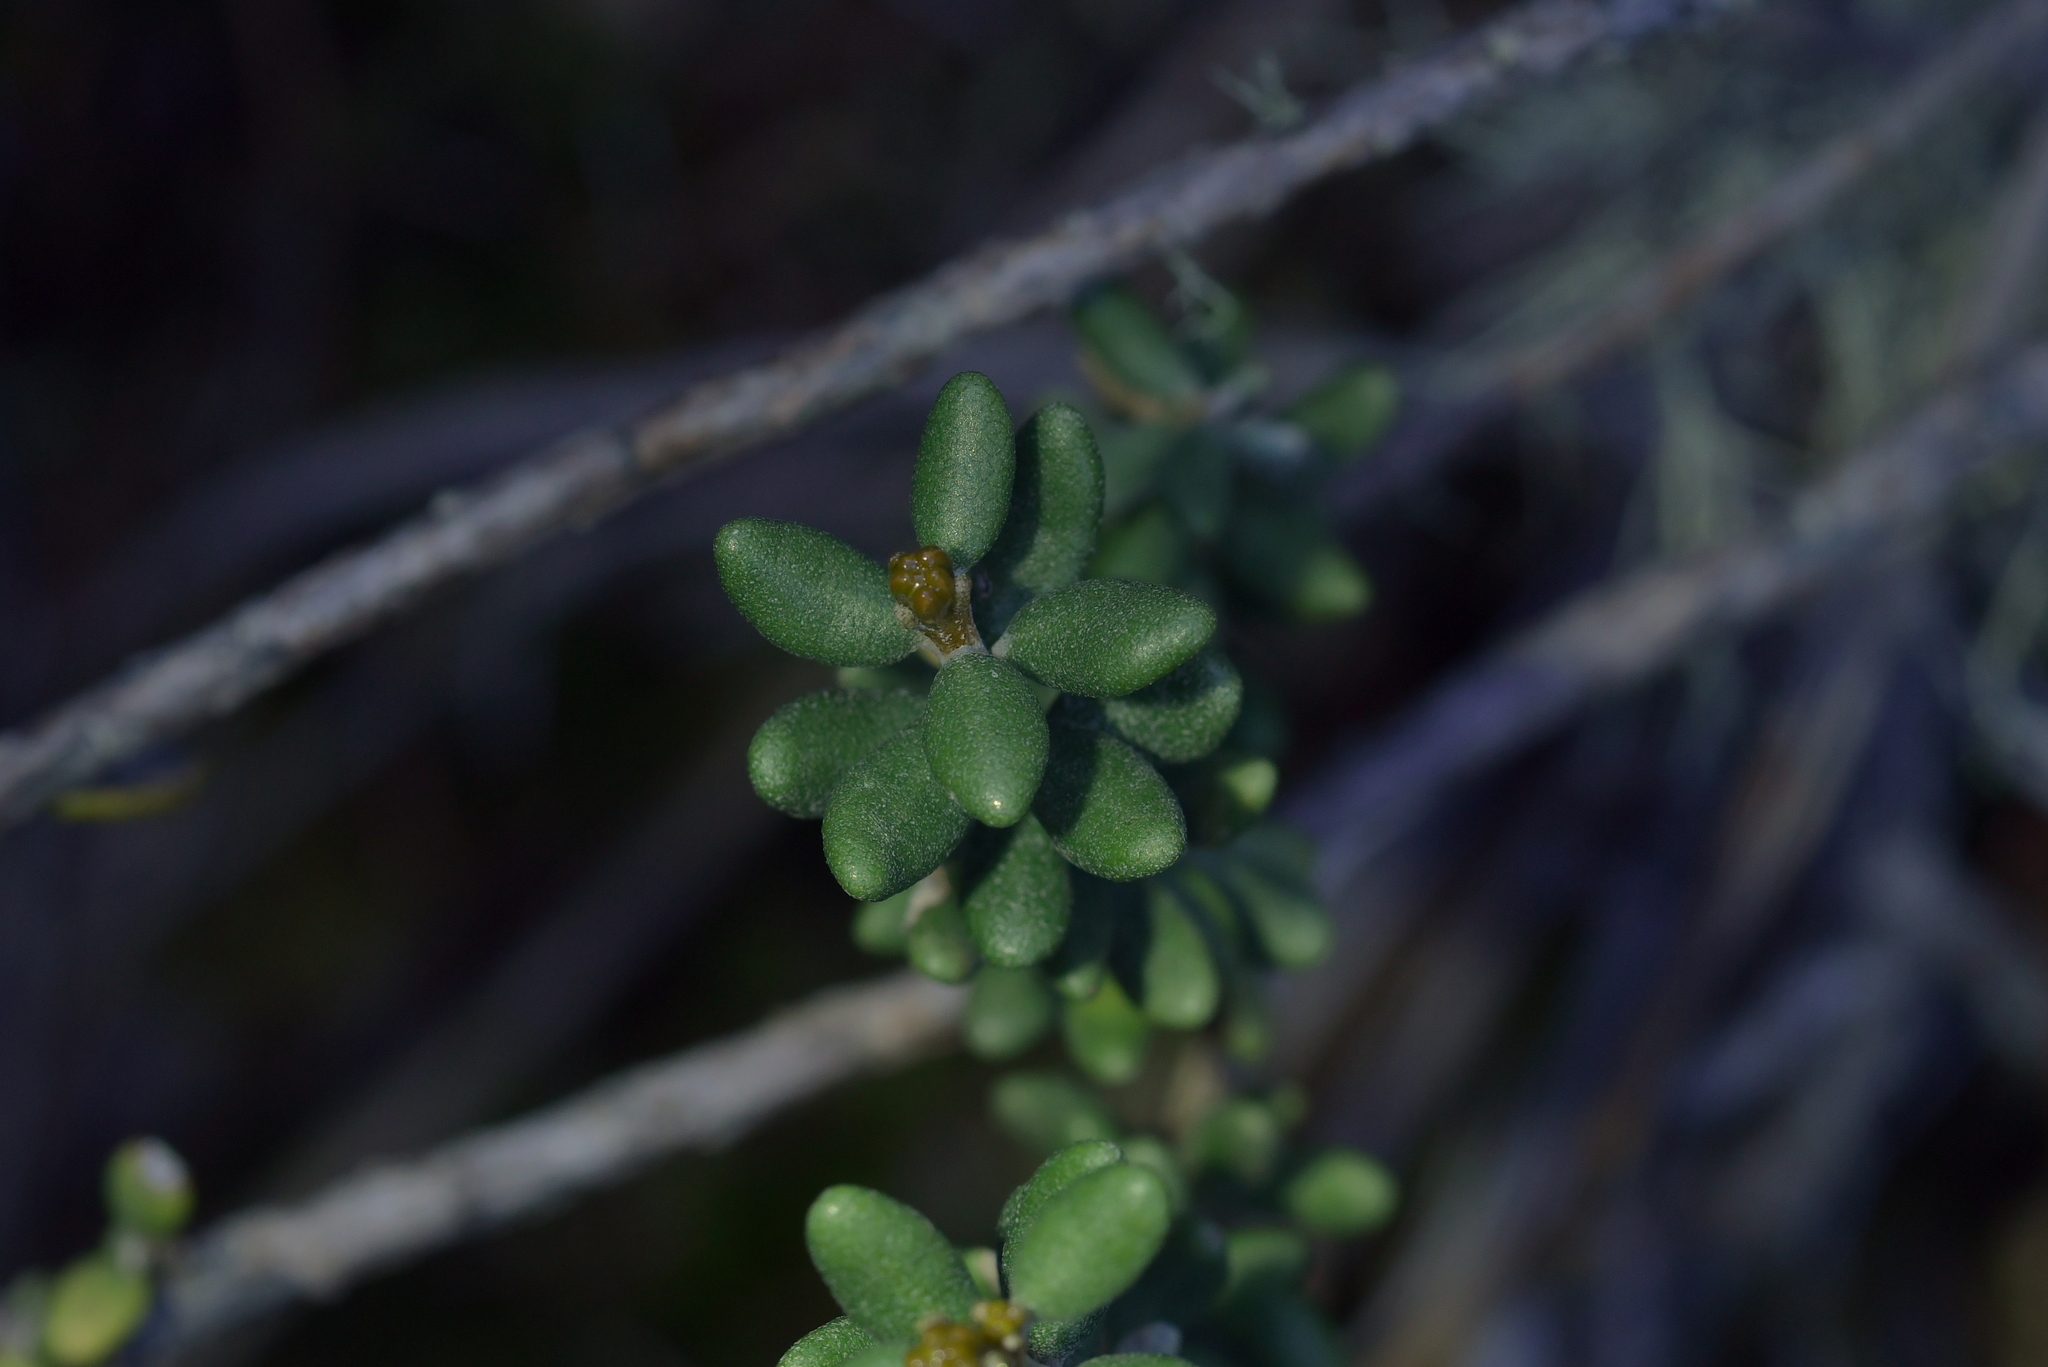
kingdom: Plantae
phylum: Tracheophyta
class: Magnoliopsida
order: Asterales
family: Asteraceae
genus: Olearia
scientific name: Olearia cymbifolia
